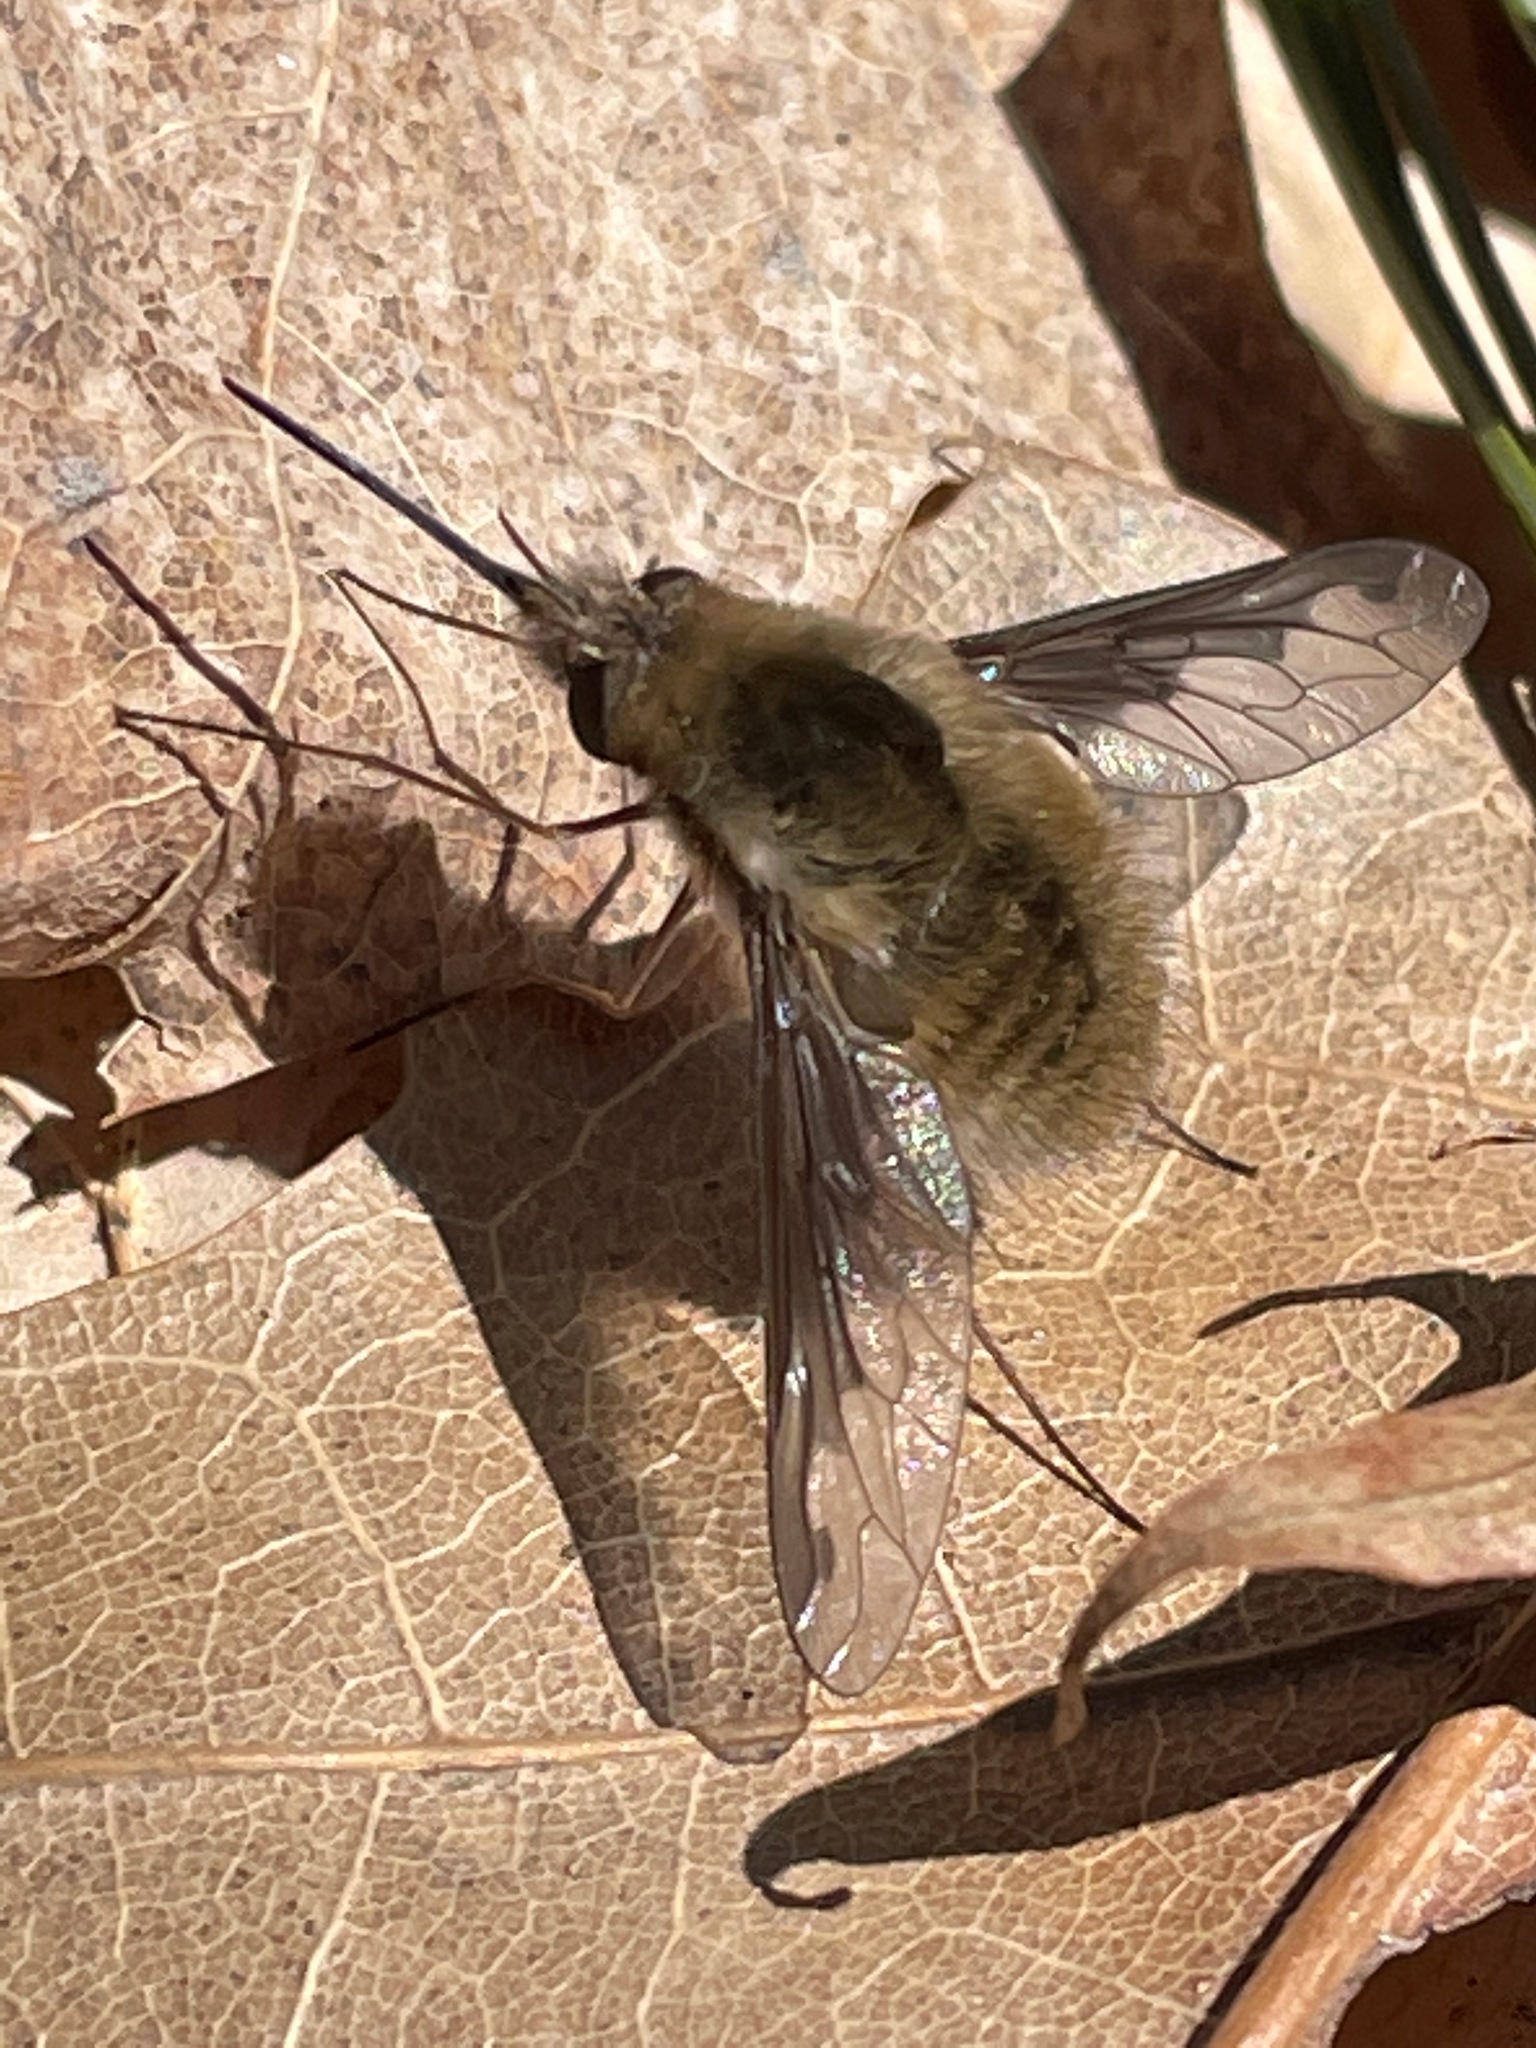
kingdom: Animalia
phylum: Arthropoda
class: Insecta
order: Diptera
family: Bombyliidae
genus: Bombylius
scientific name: Bombylius major
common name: Bee fly
